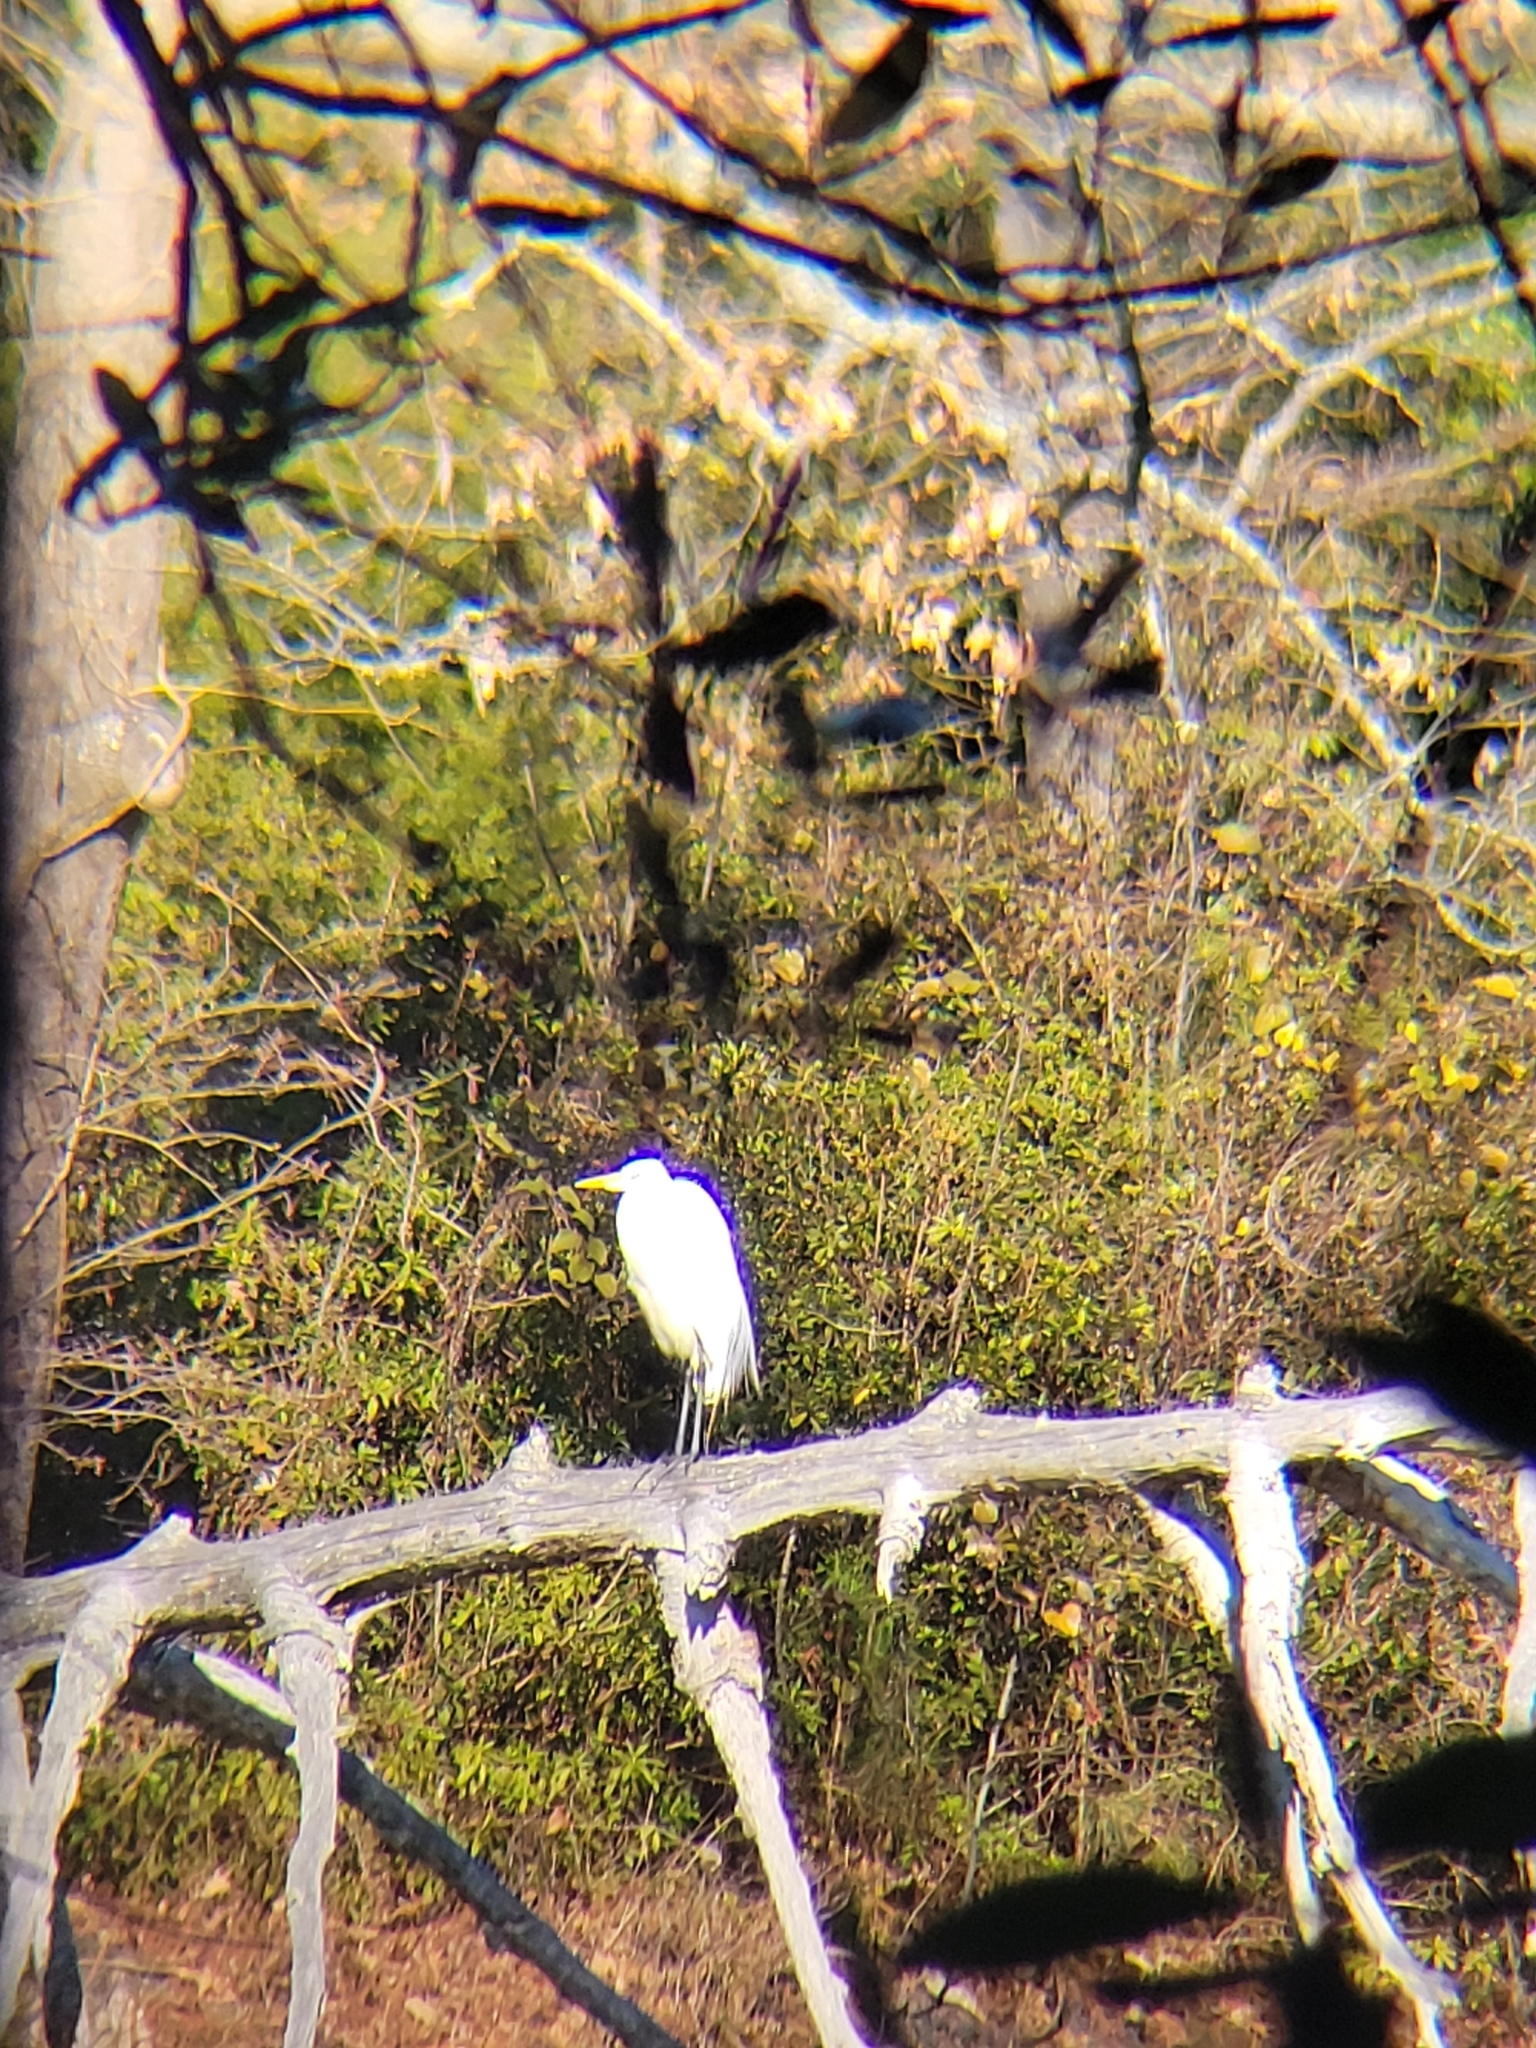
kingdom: Animalia
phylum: Chordata
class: Aves
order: Pelecaniformes
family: Ardeidae
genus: Ardea
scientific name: Ardea alba
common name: Great egret
